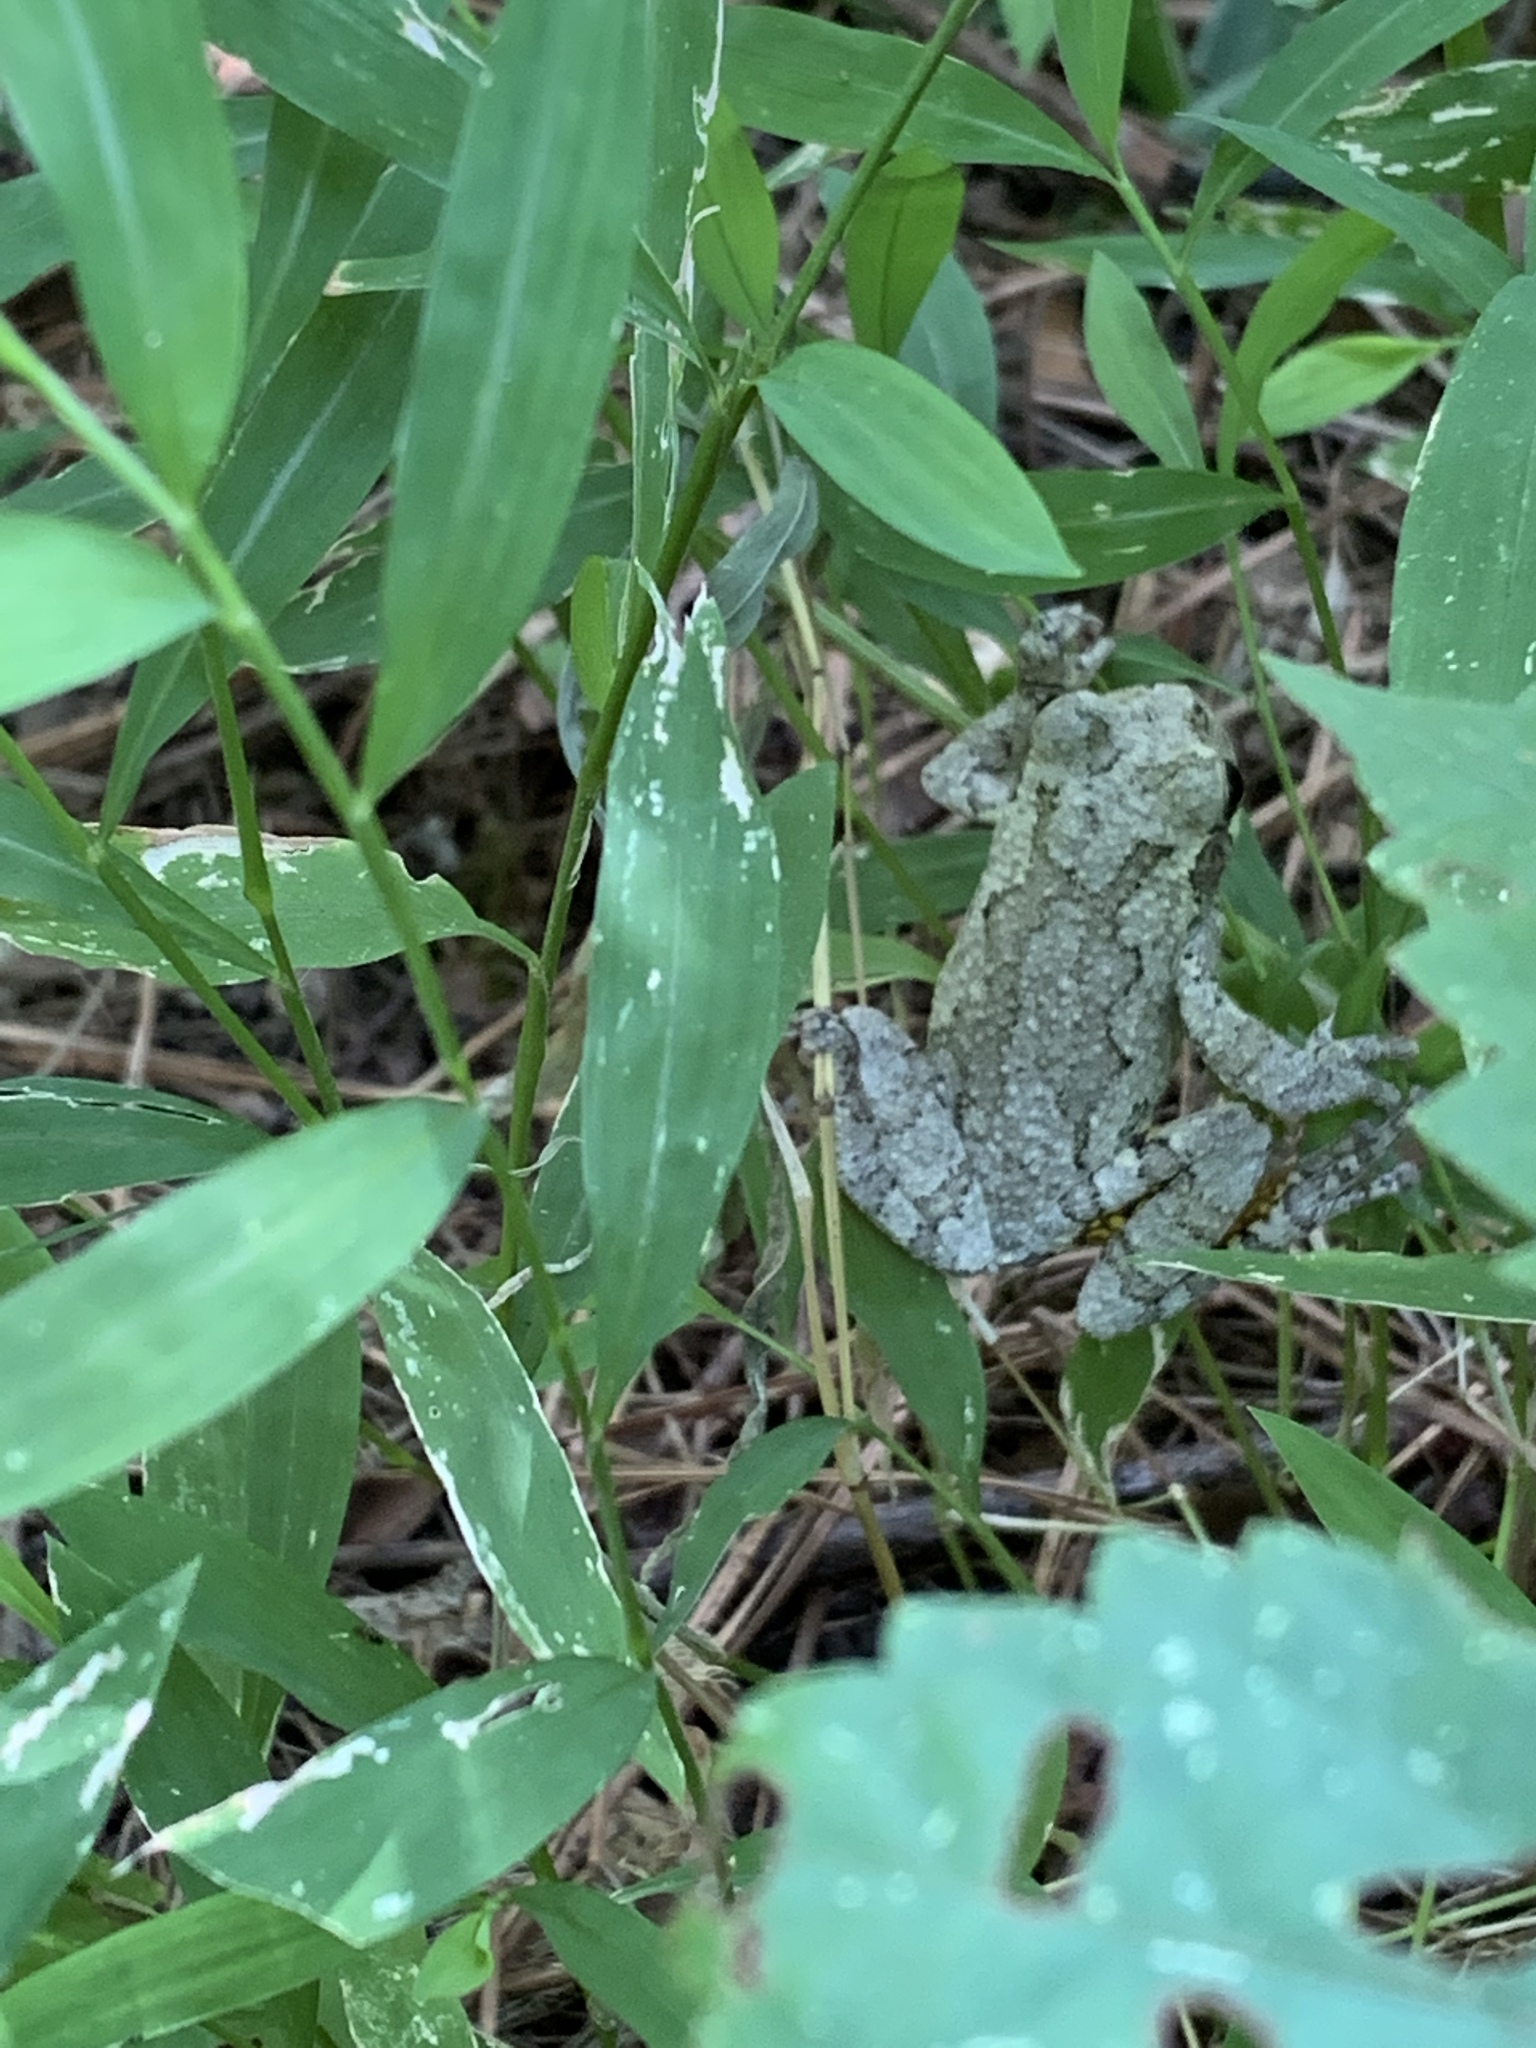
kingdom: Animalia
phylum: Chordata
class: Amphibia
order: Anura
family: Hylidae
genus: Hyla
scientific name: Hyla
